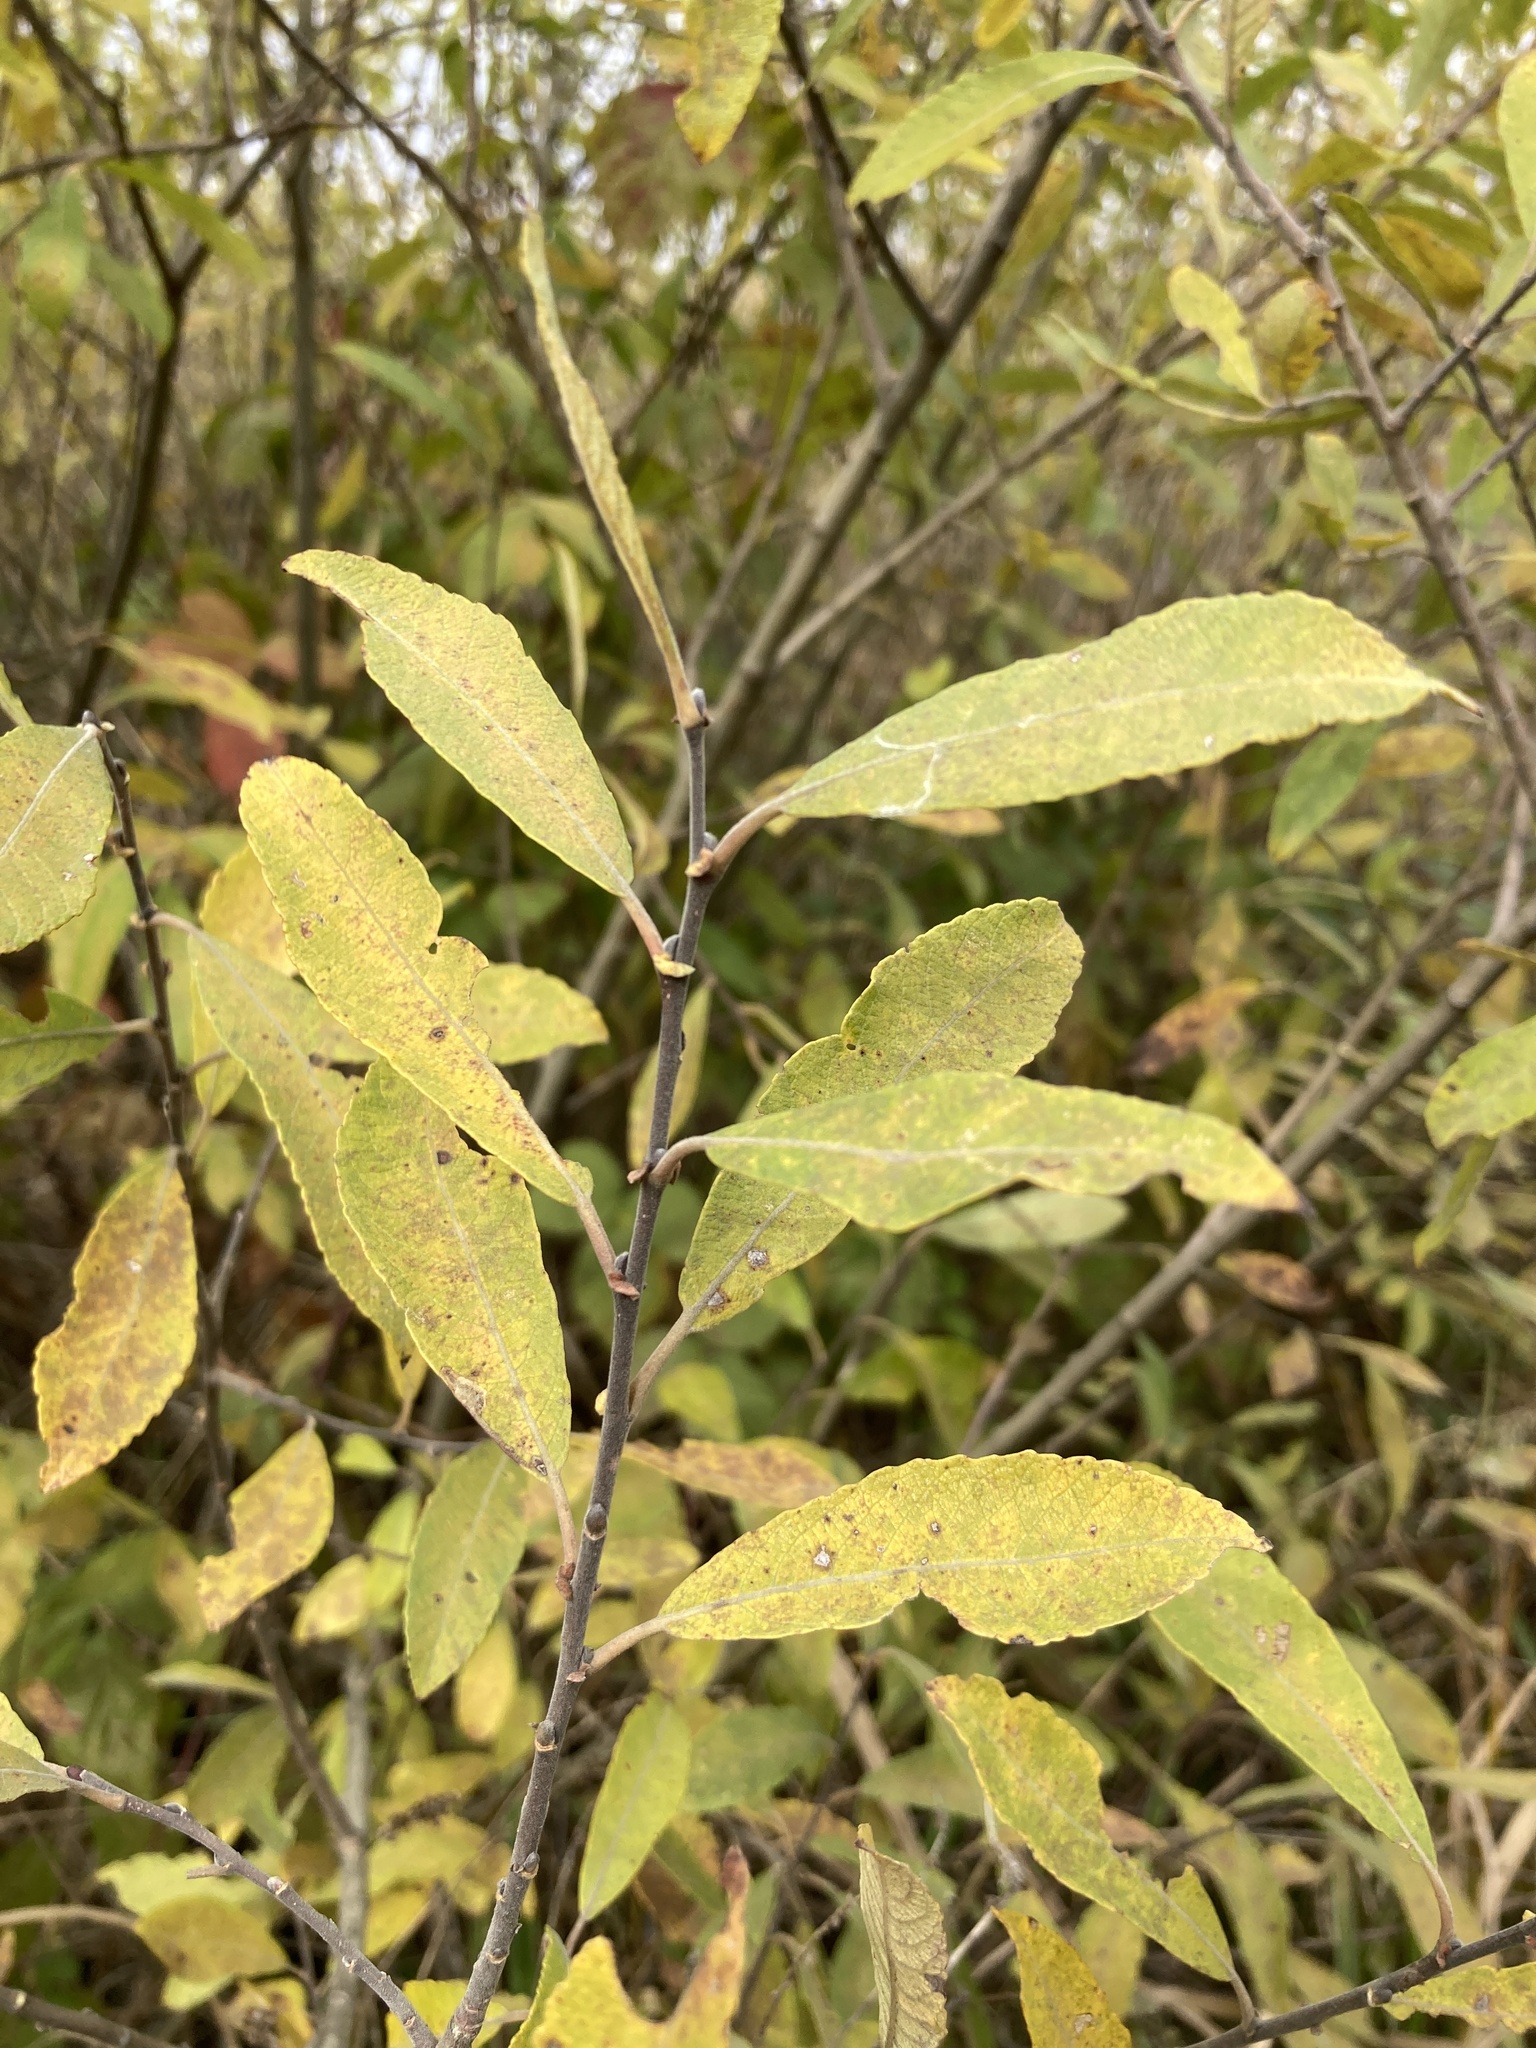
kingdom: Plantae
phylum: Tracheophyta
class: Magnoliopsida
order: Malpighiales
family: Salicaceae
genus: Salix
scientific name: Salix cinerea
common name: Common sallow
